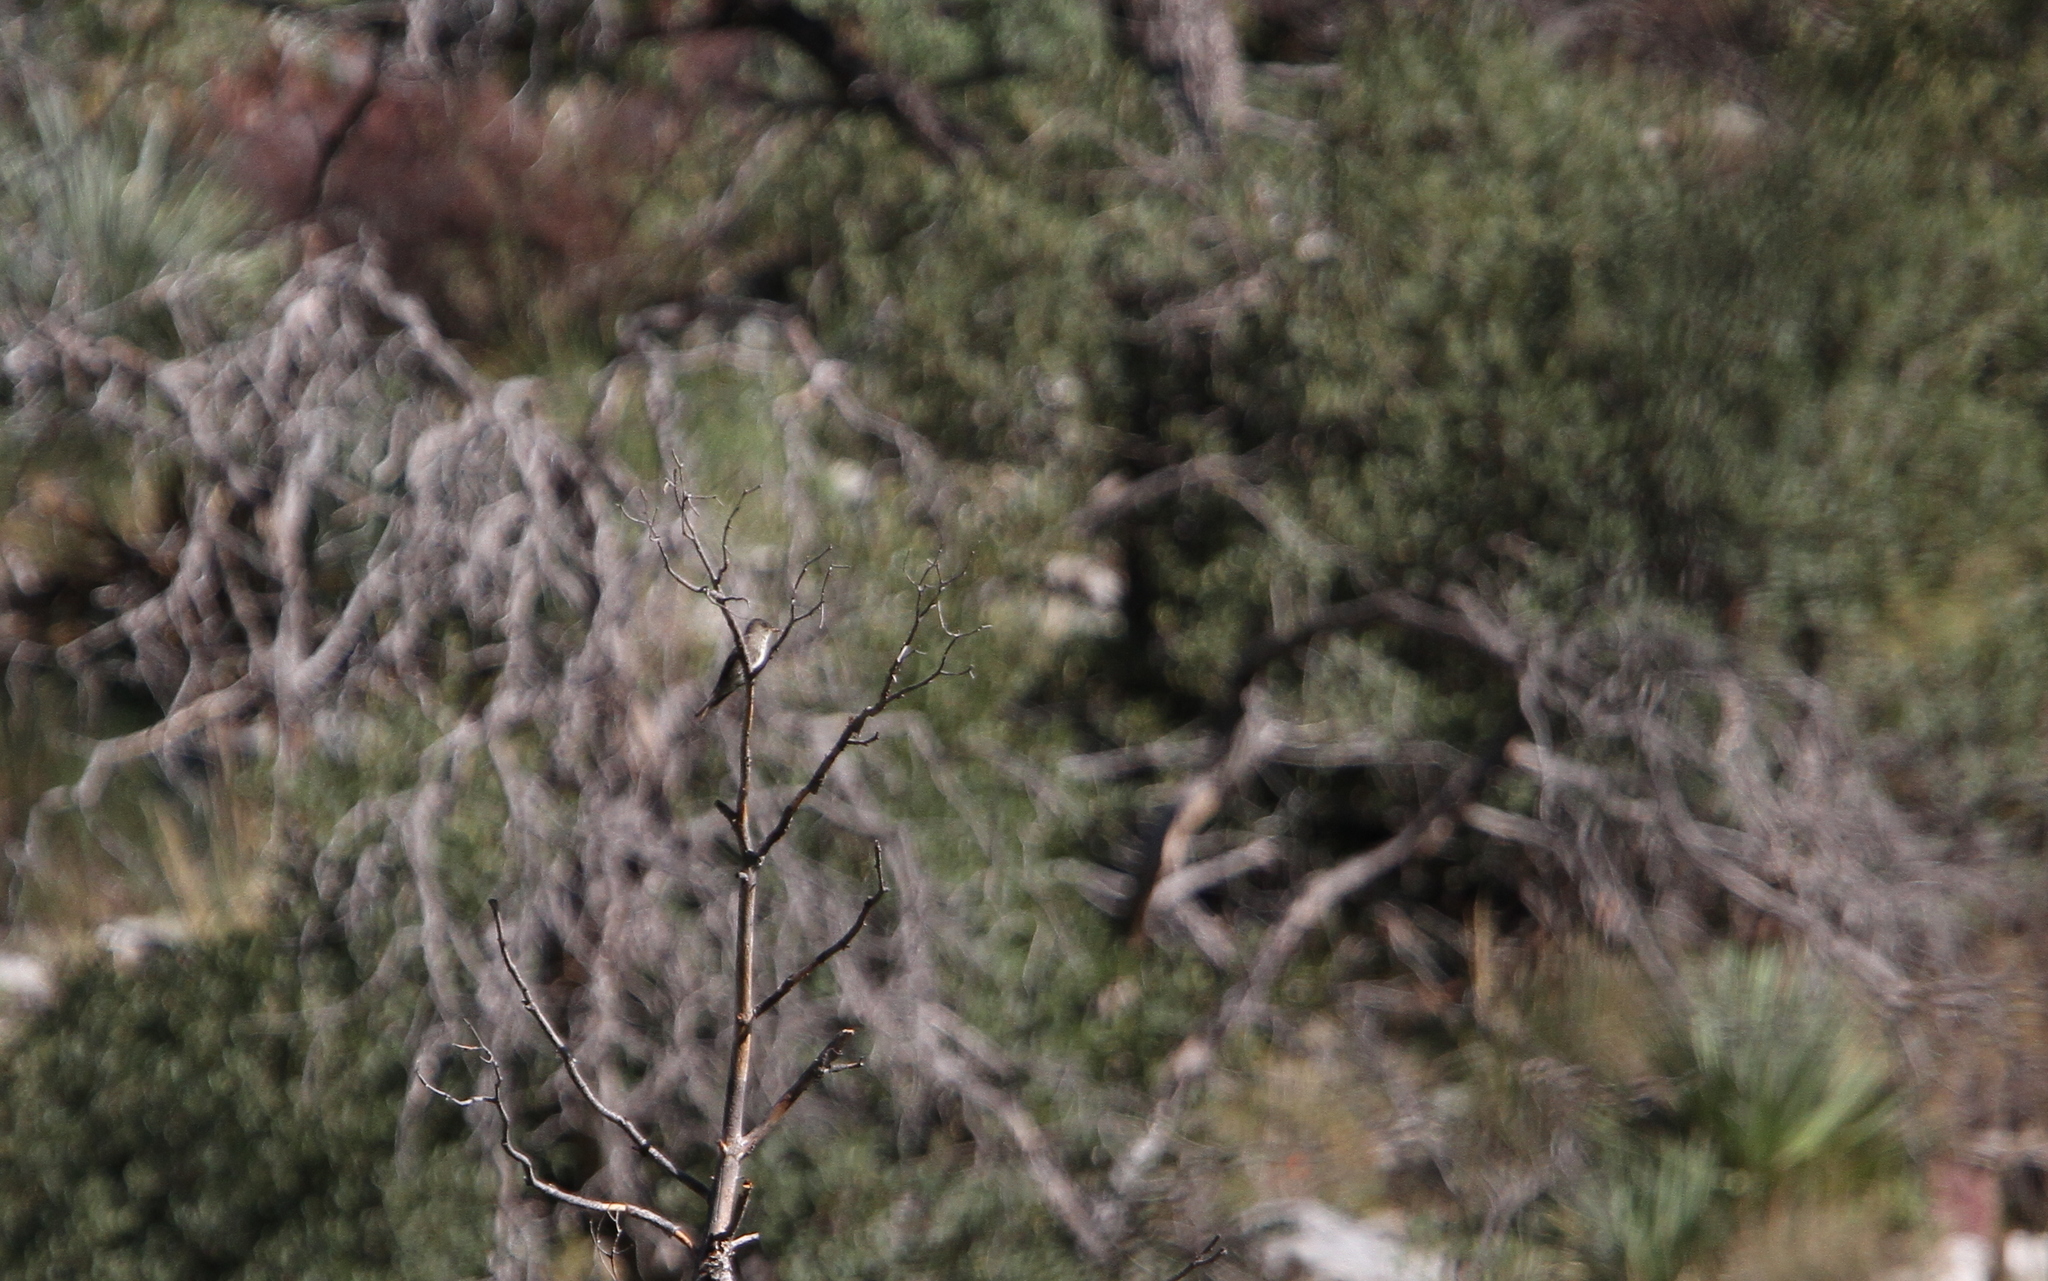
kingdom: Animalia
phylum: Chordata
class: Aves
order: Passeriformes
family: Tyrannidae
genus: Contopus
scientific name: Contopus cooperi
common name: Olive-sided flycatcher
